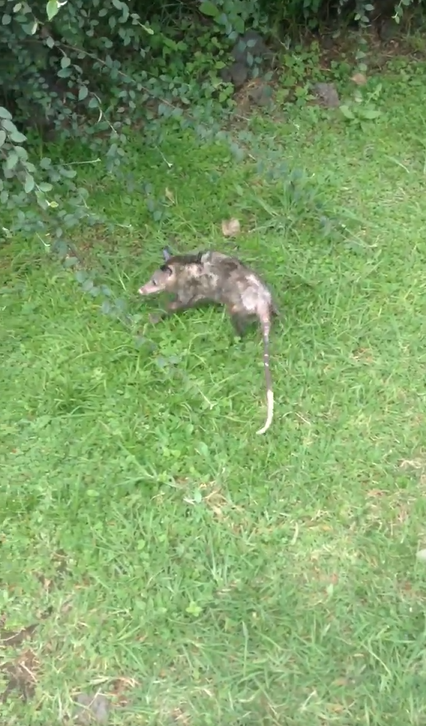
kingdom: Animalia
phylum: Chordata
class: Mammalia
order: Didelphimorphia
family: Didelphidae
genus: Didelphis
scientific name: Didelphis virginiana
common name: Virginia opossum
